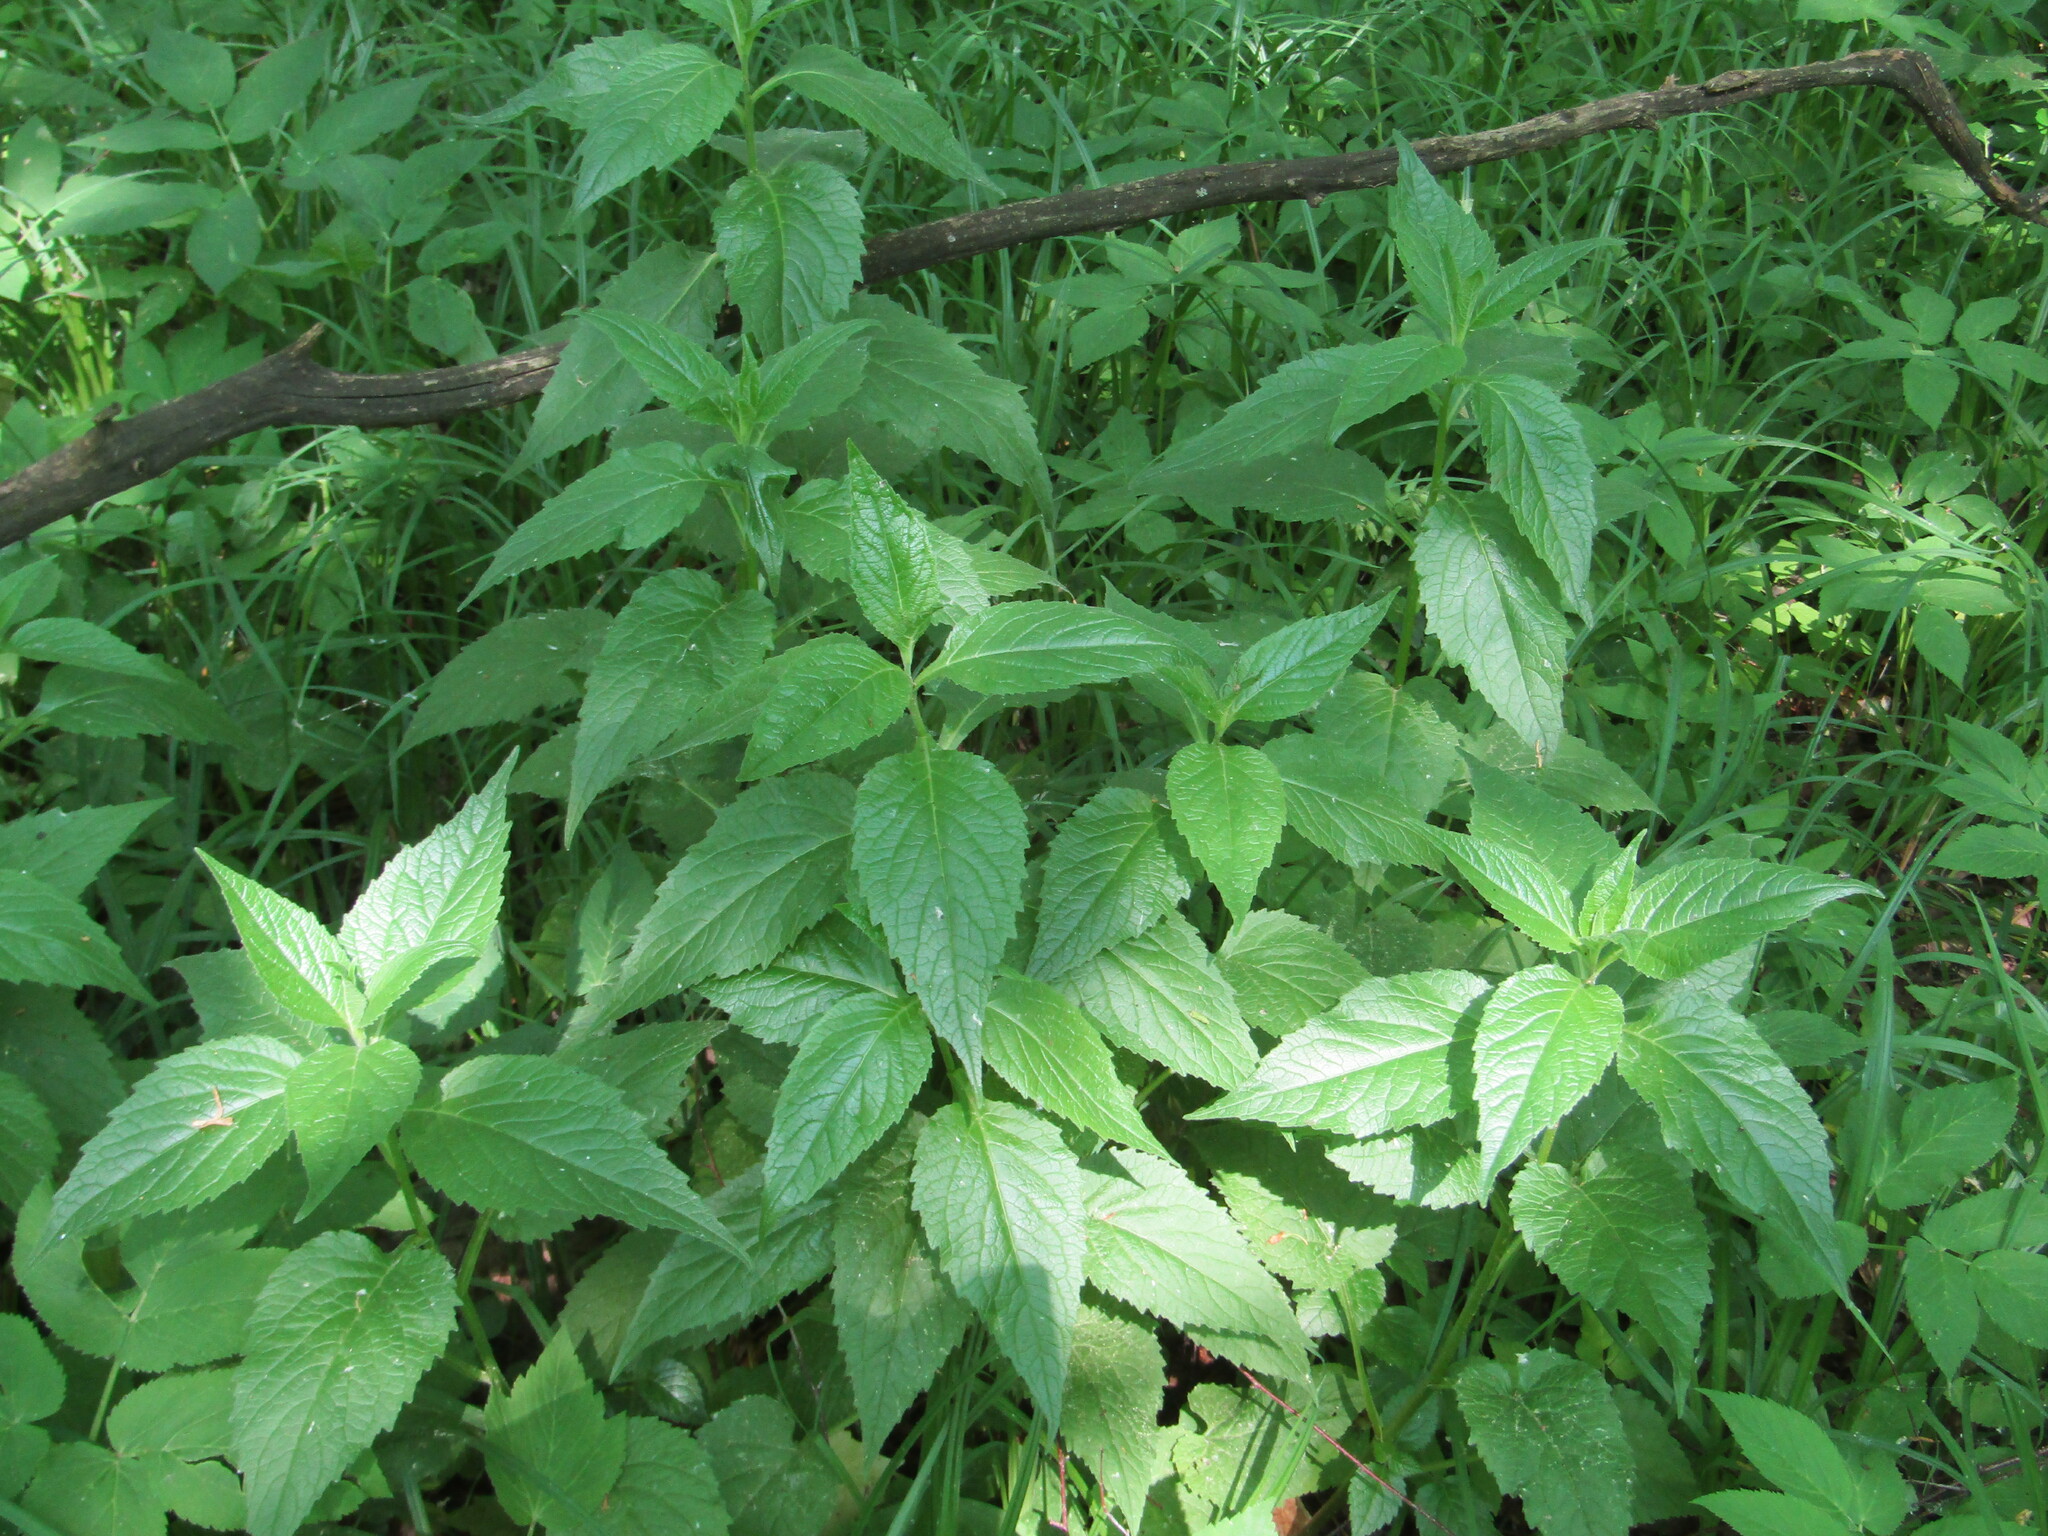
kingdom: Plantae
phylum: Tracheophyta
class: Magnoliopsida
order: Asterales
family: Campanulaceae
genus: Campanula
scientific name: Campanula latifolia
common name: Giant bellflower
